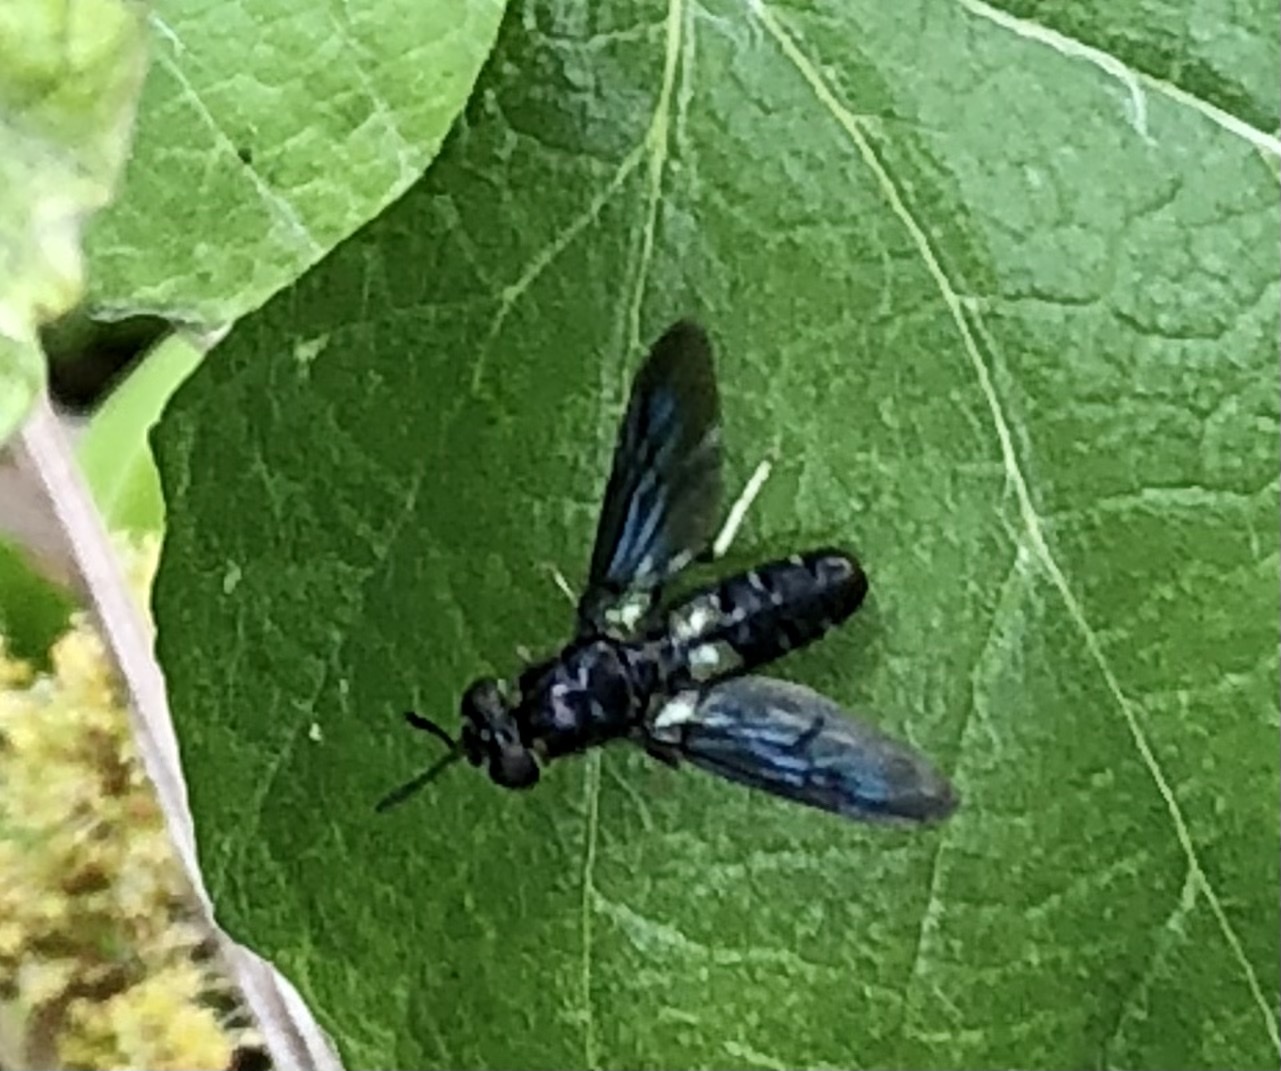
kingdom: Animalia
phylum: Arthropoda
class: Insecta
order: Diptera
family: Stratiomyidae
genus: Hermetia
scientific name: Hermetia illucens
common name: Black soldier fly
